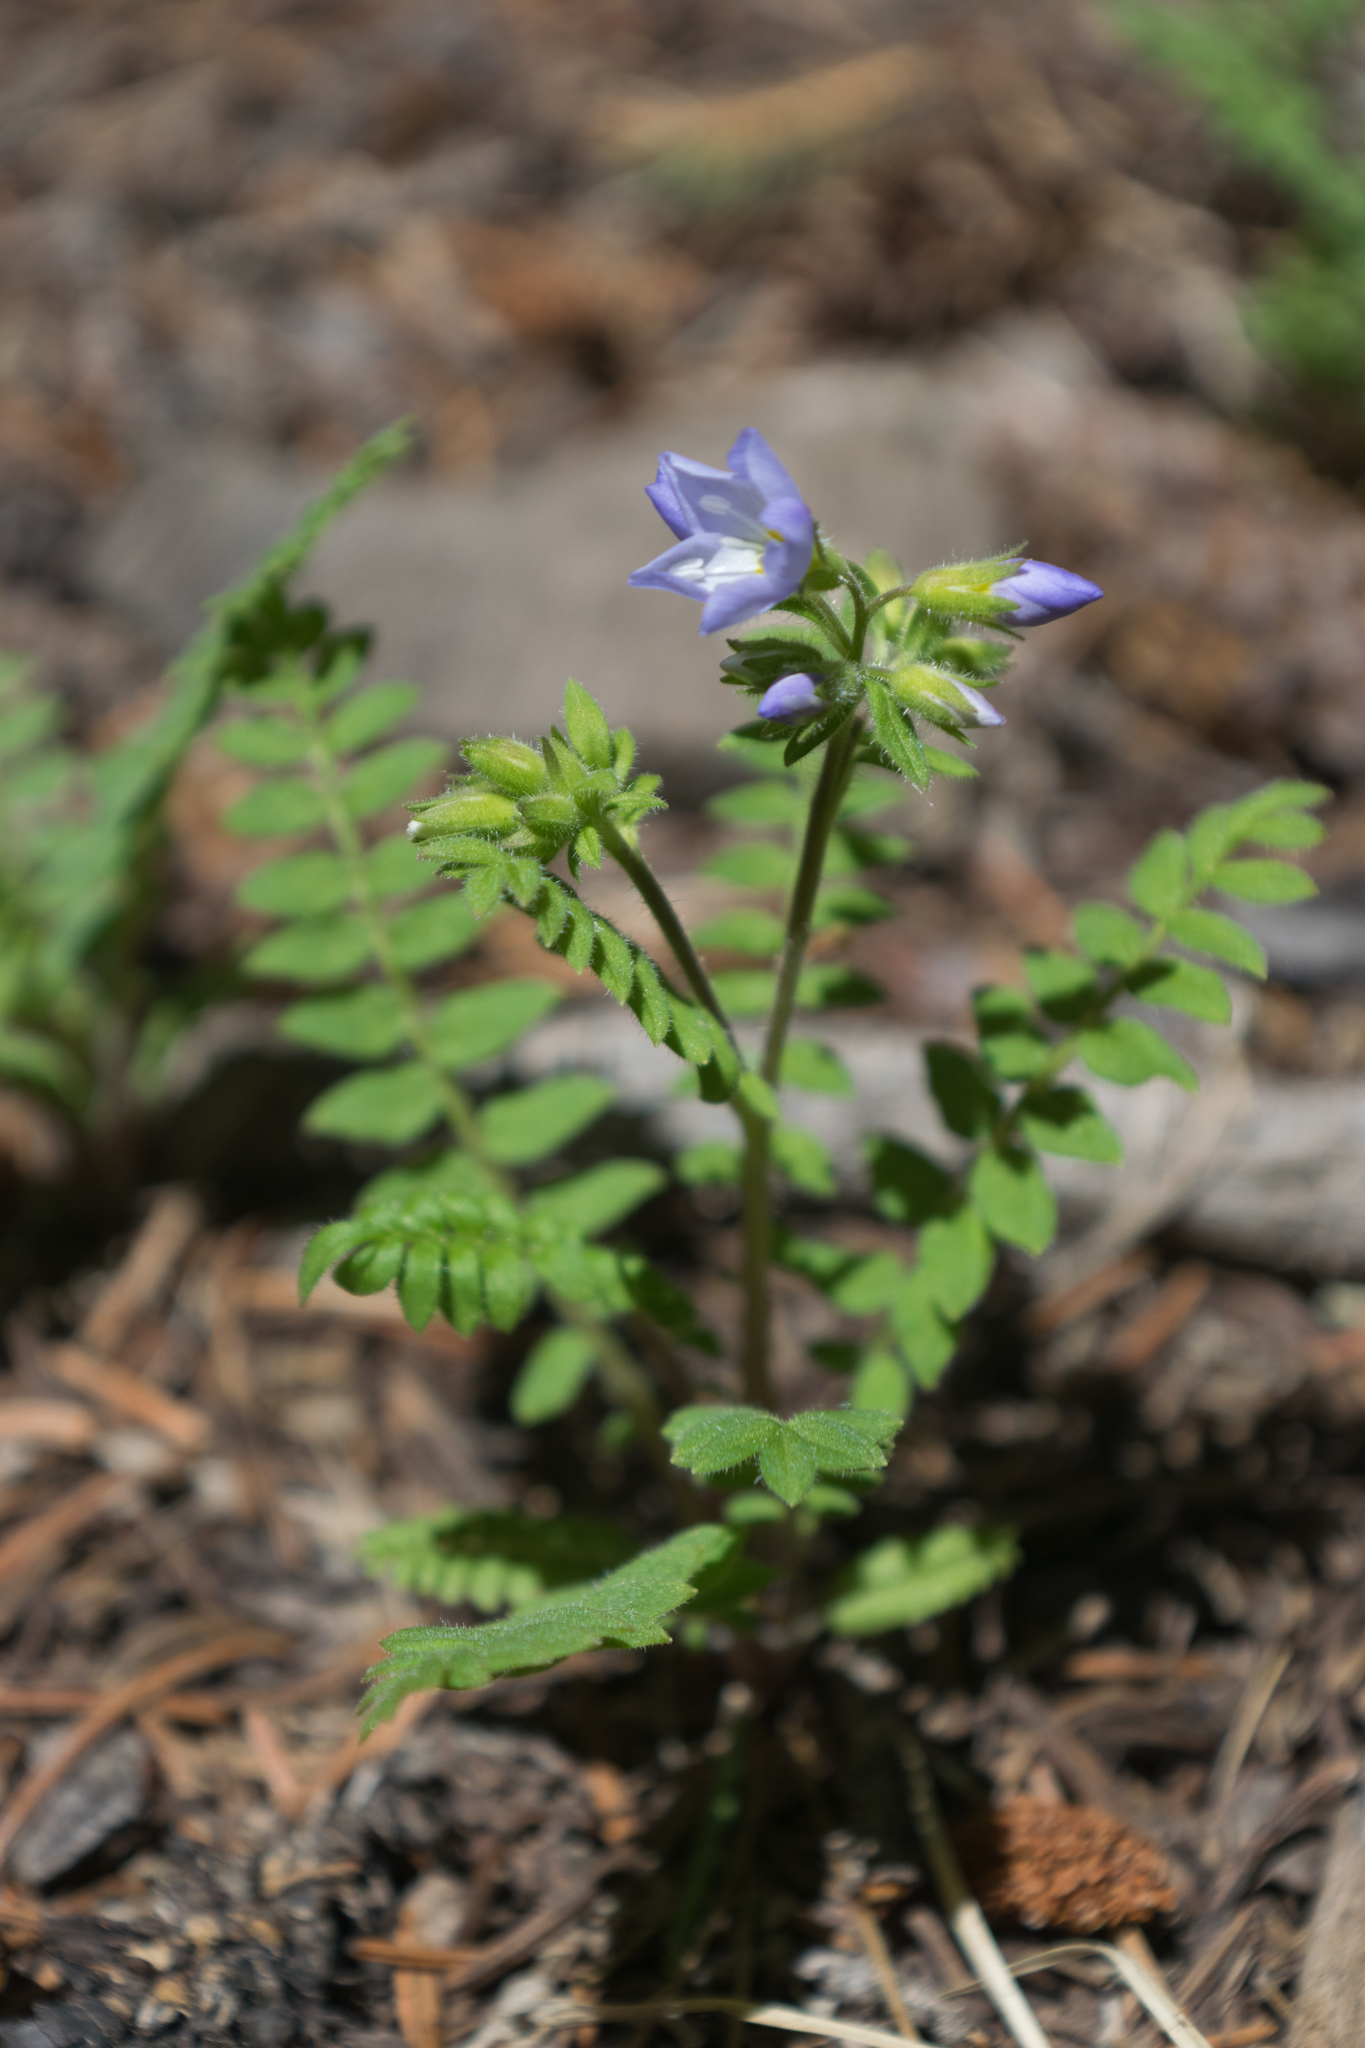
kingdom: Plantae
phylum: Tracheophyta
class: Magnoliopsida
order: Ericales
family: Polemoniaceae
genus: Polemonium
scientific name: Polemonium pulcherrimum
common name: Short jacob's-ladder
